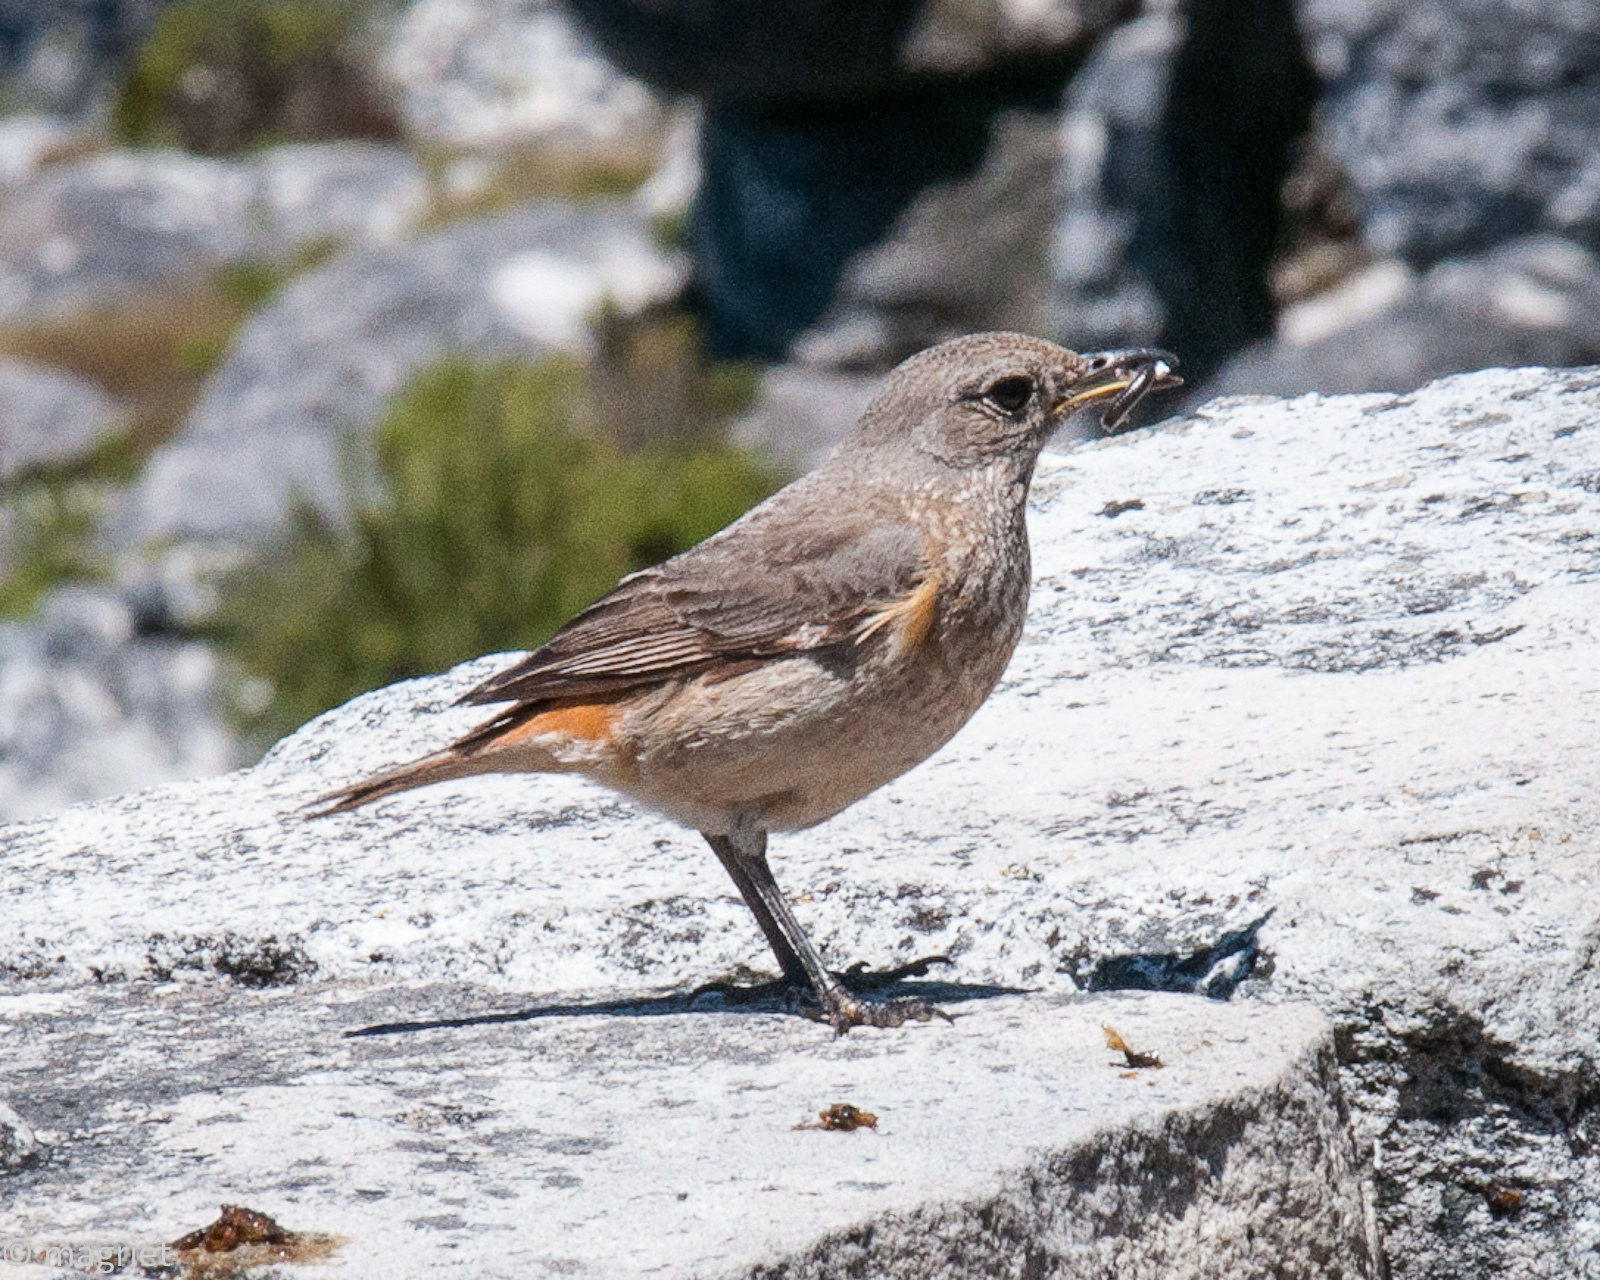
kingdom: Animalia
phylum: Chordata
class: Aves
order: Passeriformes
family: Muscicapidae
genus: Monticola
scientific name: Monticola explorator
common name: Sentinel rock thrush
